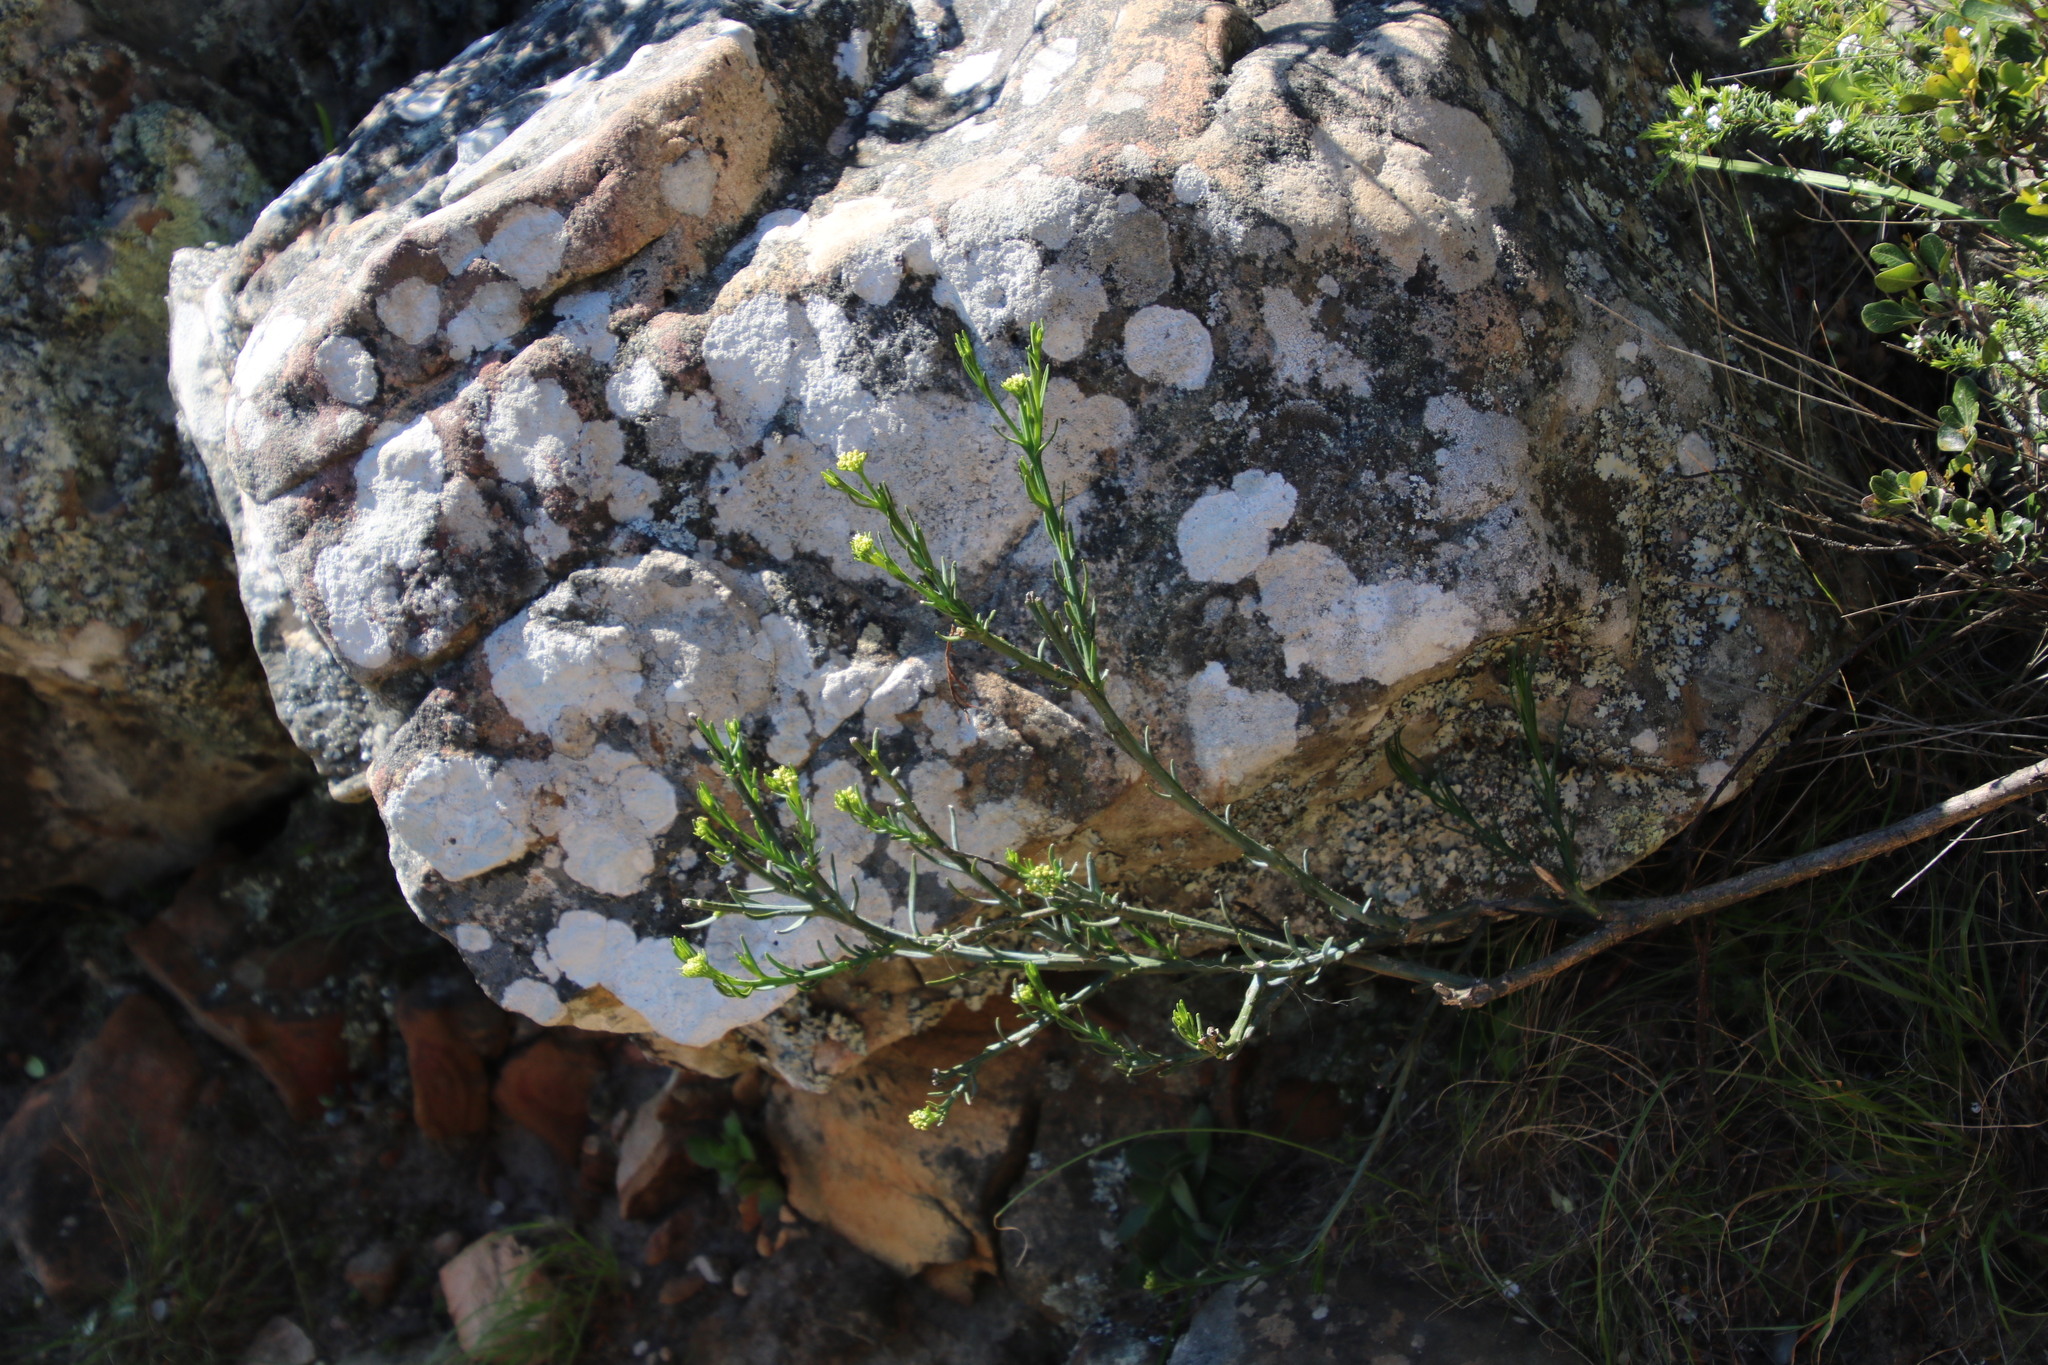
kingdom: Plantae
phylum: Tracheophyta
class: Magnoliopsida
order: Santalales
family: Thesiaceae
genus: Thesium
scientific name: Thesium strictum
